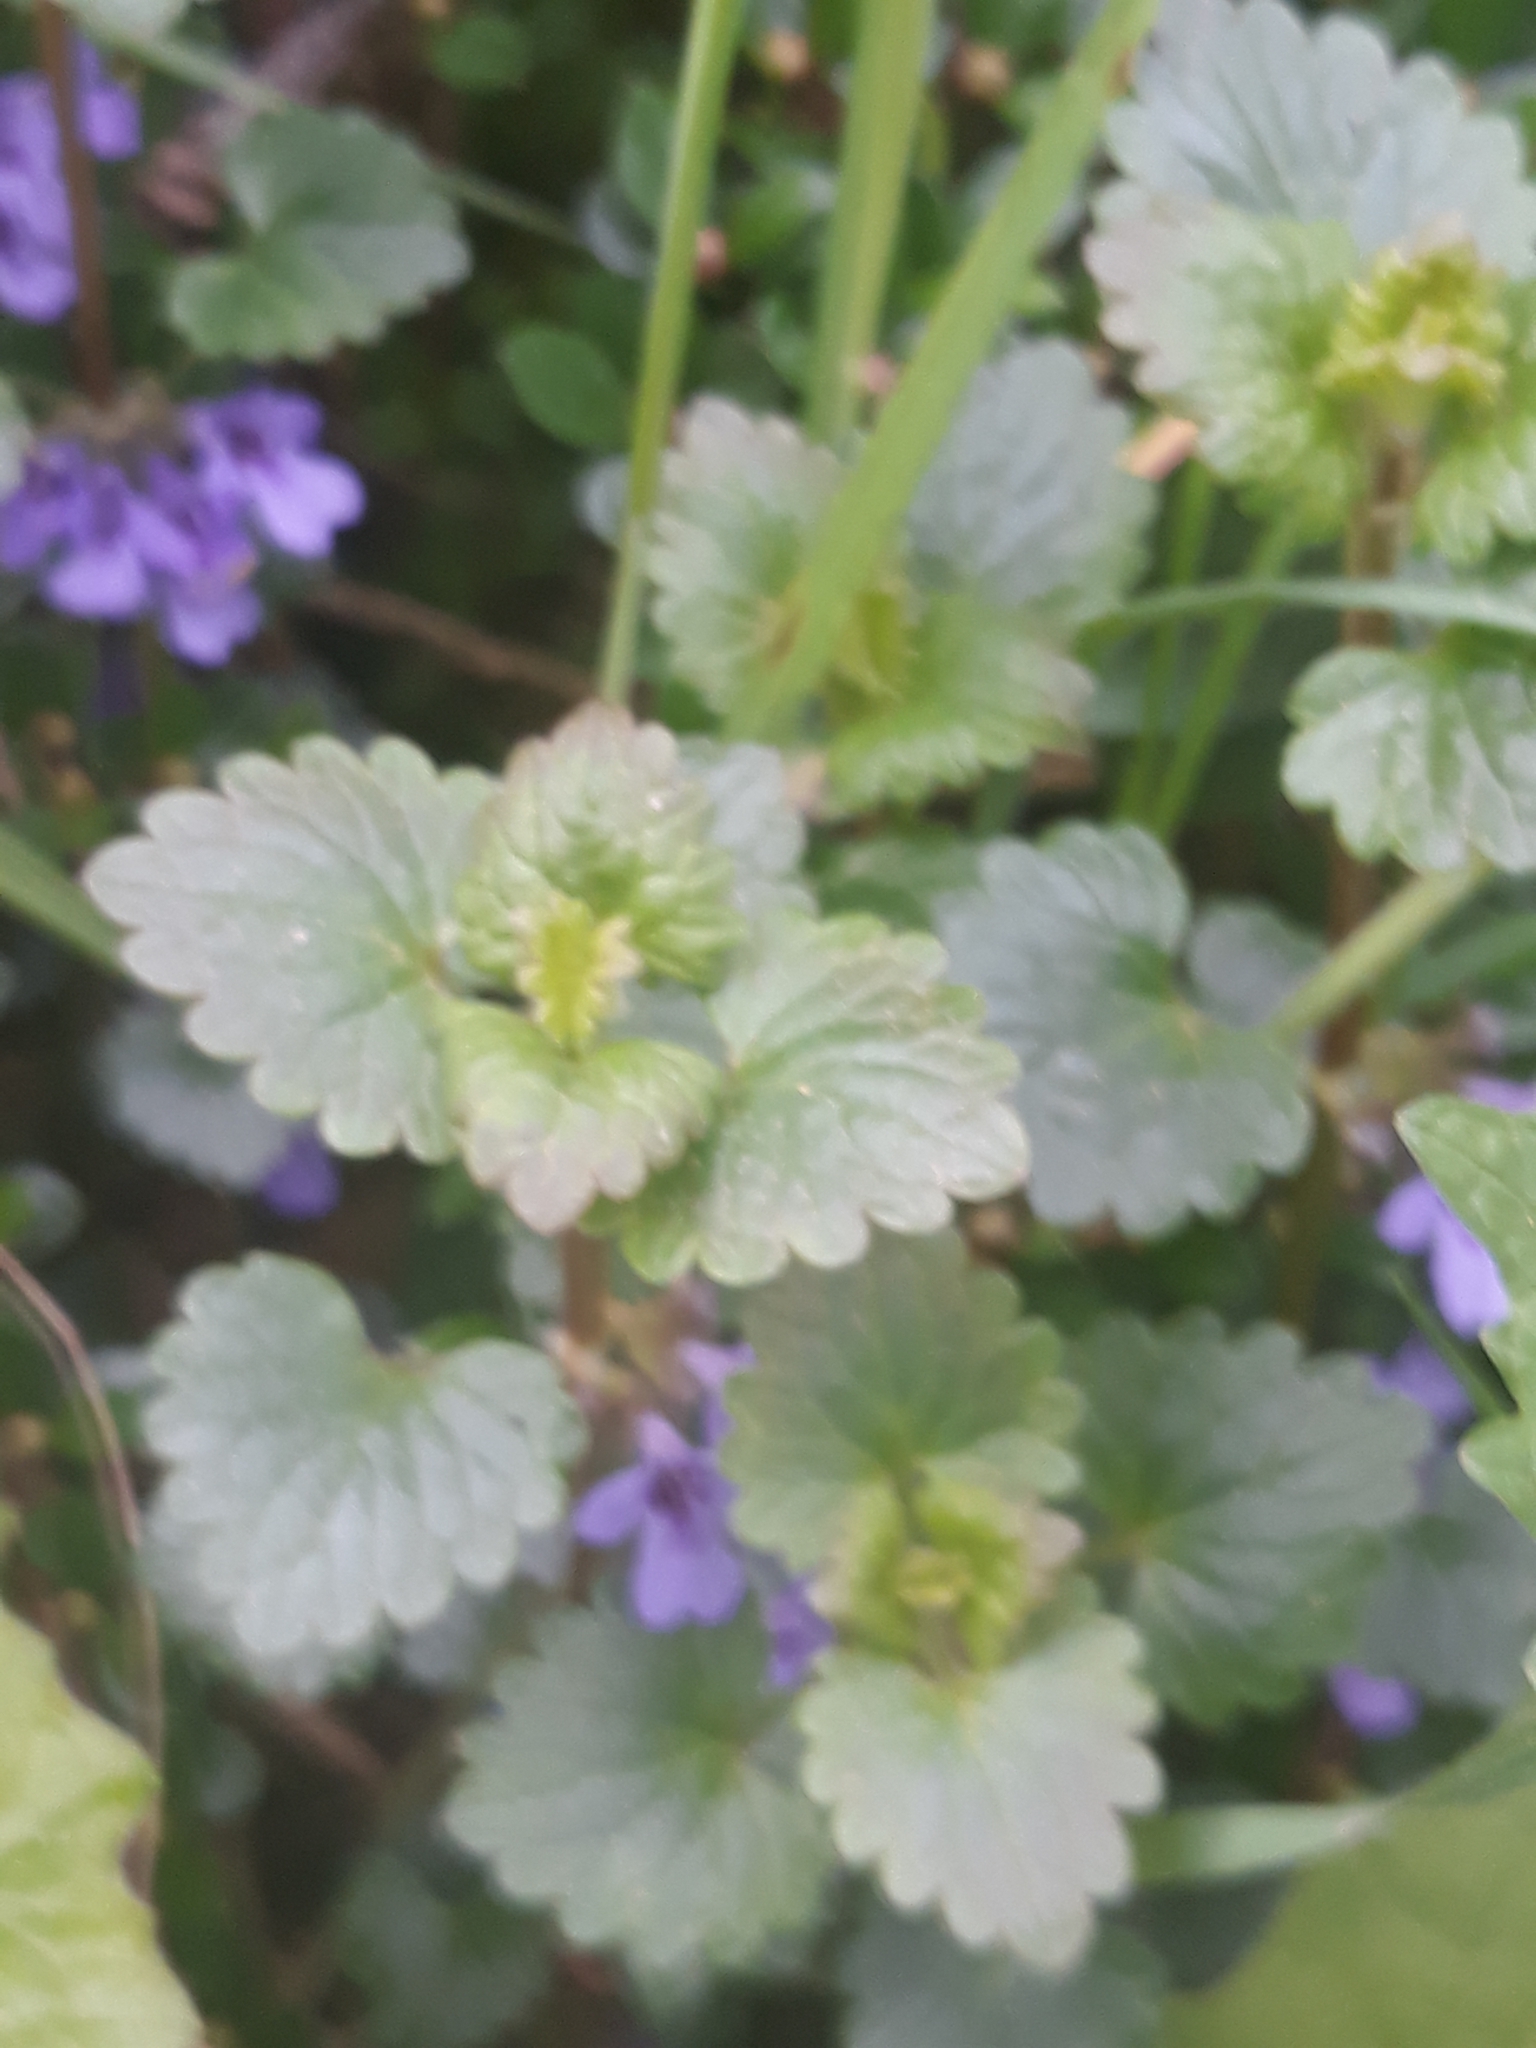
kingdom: Plantae
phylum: Tracheophyta
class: Magnoliopsida
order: Lamiales
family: Lamiaceae
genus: Glechoma
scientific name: Glechoma hederacea
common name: Ground ivy
